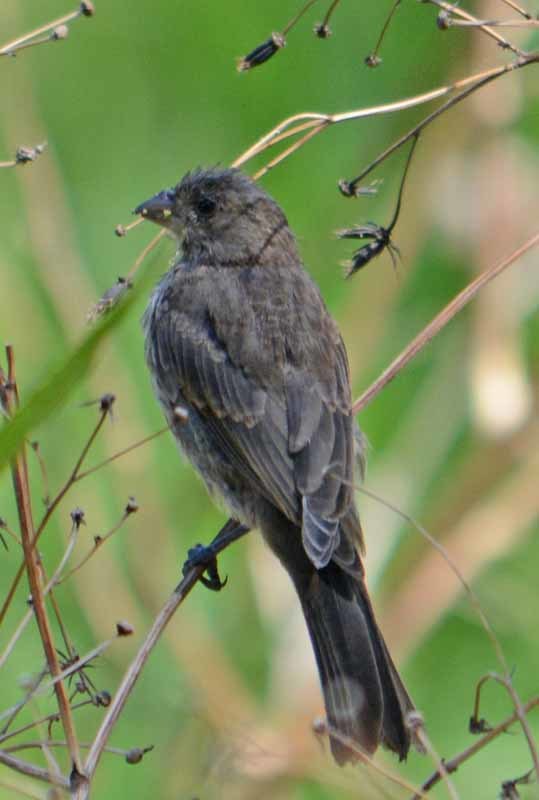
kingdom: Animalia
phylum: Chordata
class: Aves
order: Passeriformes
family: Fringillidae
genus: Haemorhous
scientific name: Haemorhous mexicanus
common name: House finch
